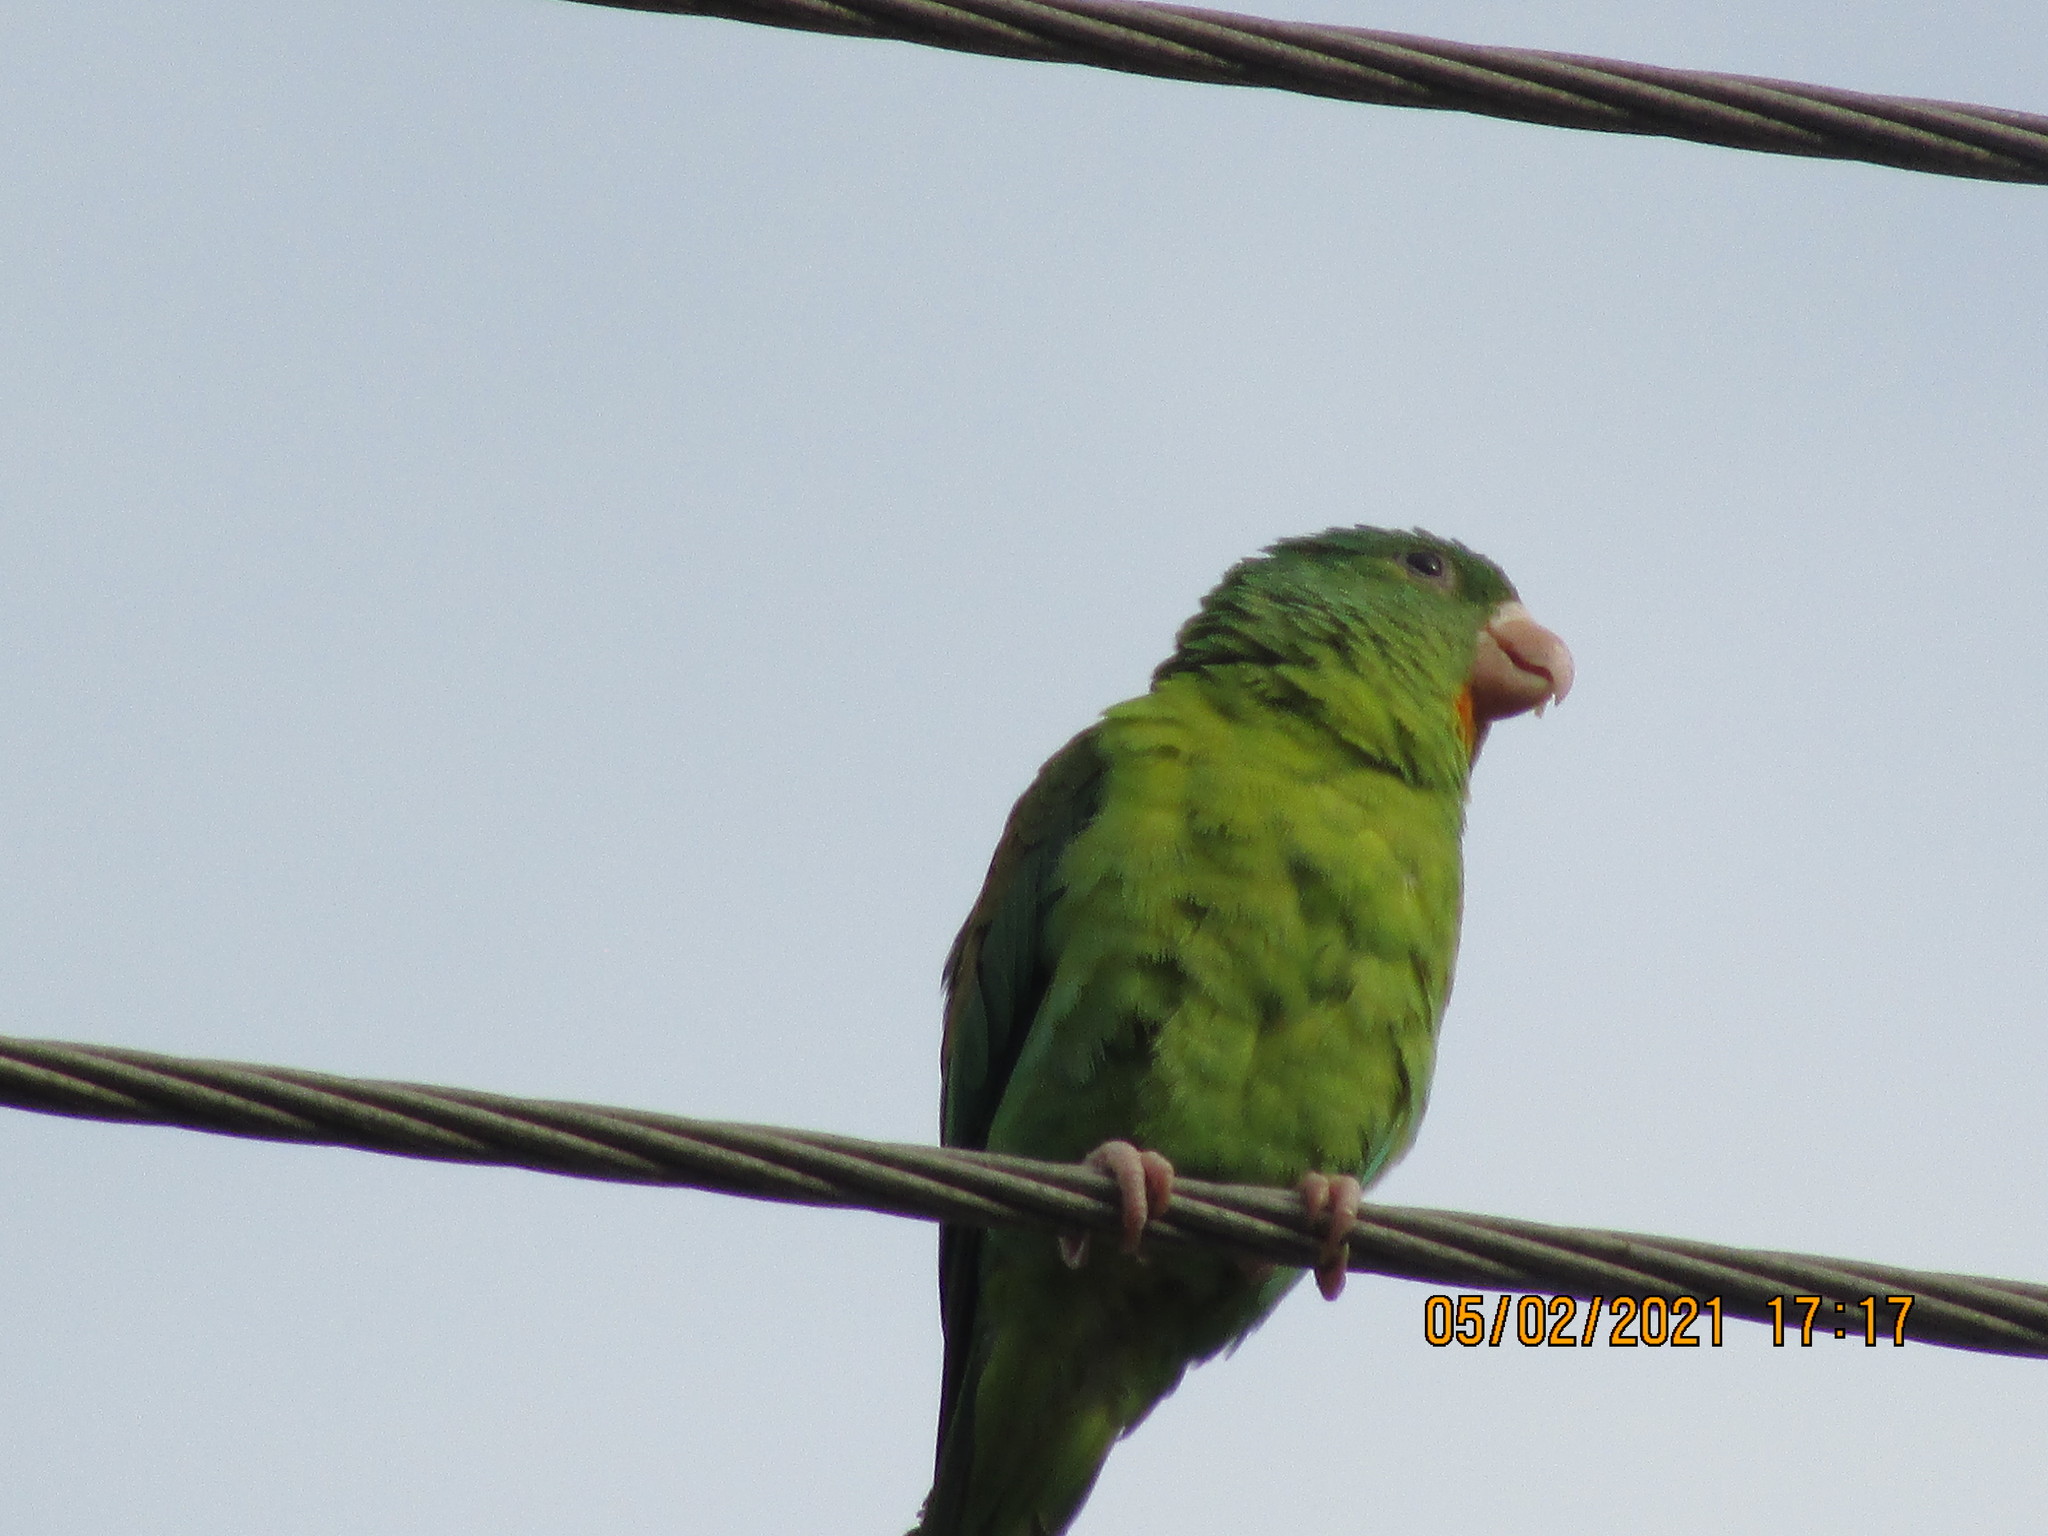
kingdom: Animalia
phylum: Chordata
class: Aves
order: Psittaciformes
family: Psittacidae
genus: Brotogeris
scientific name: Brotogeris jugularis
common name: Orange-chinned parakeet
